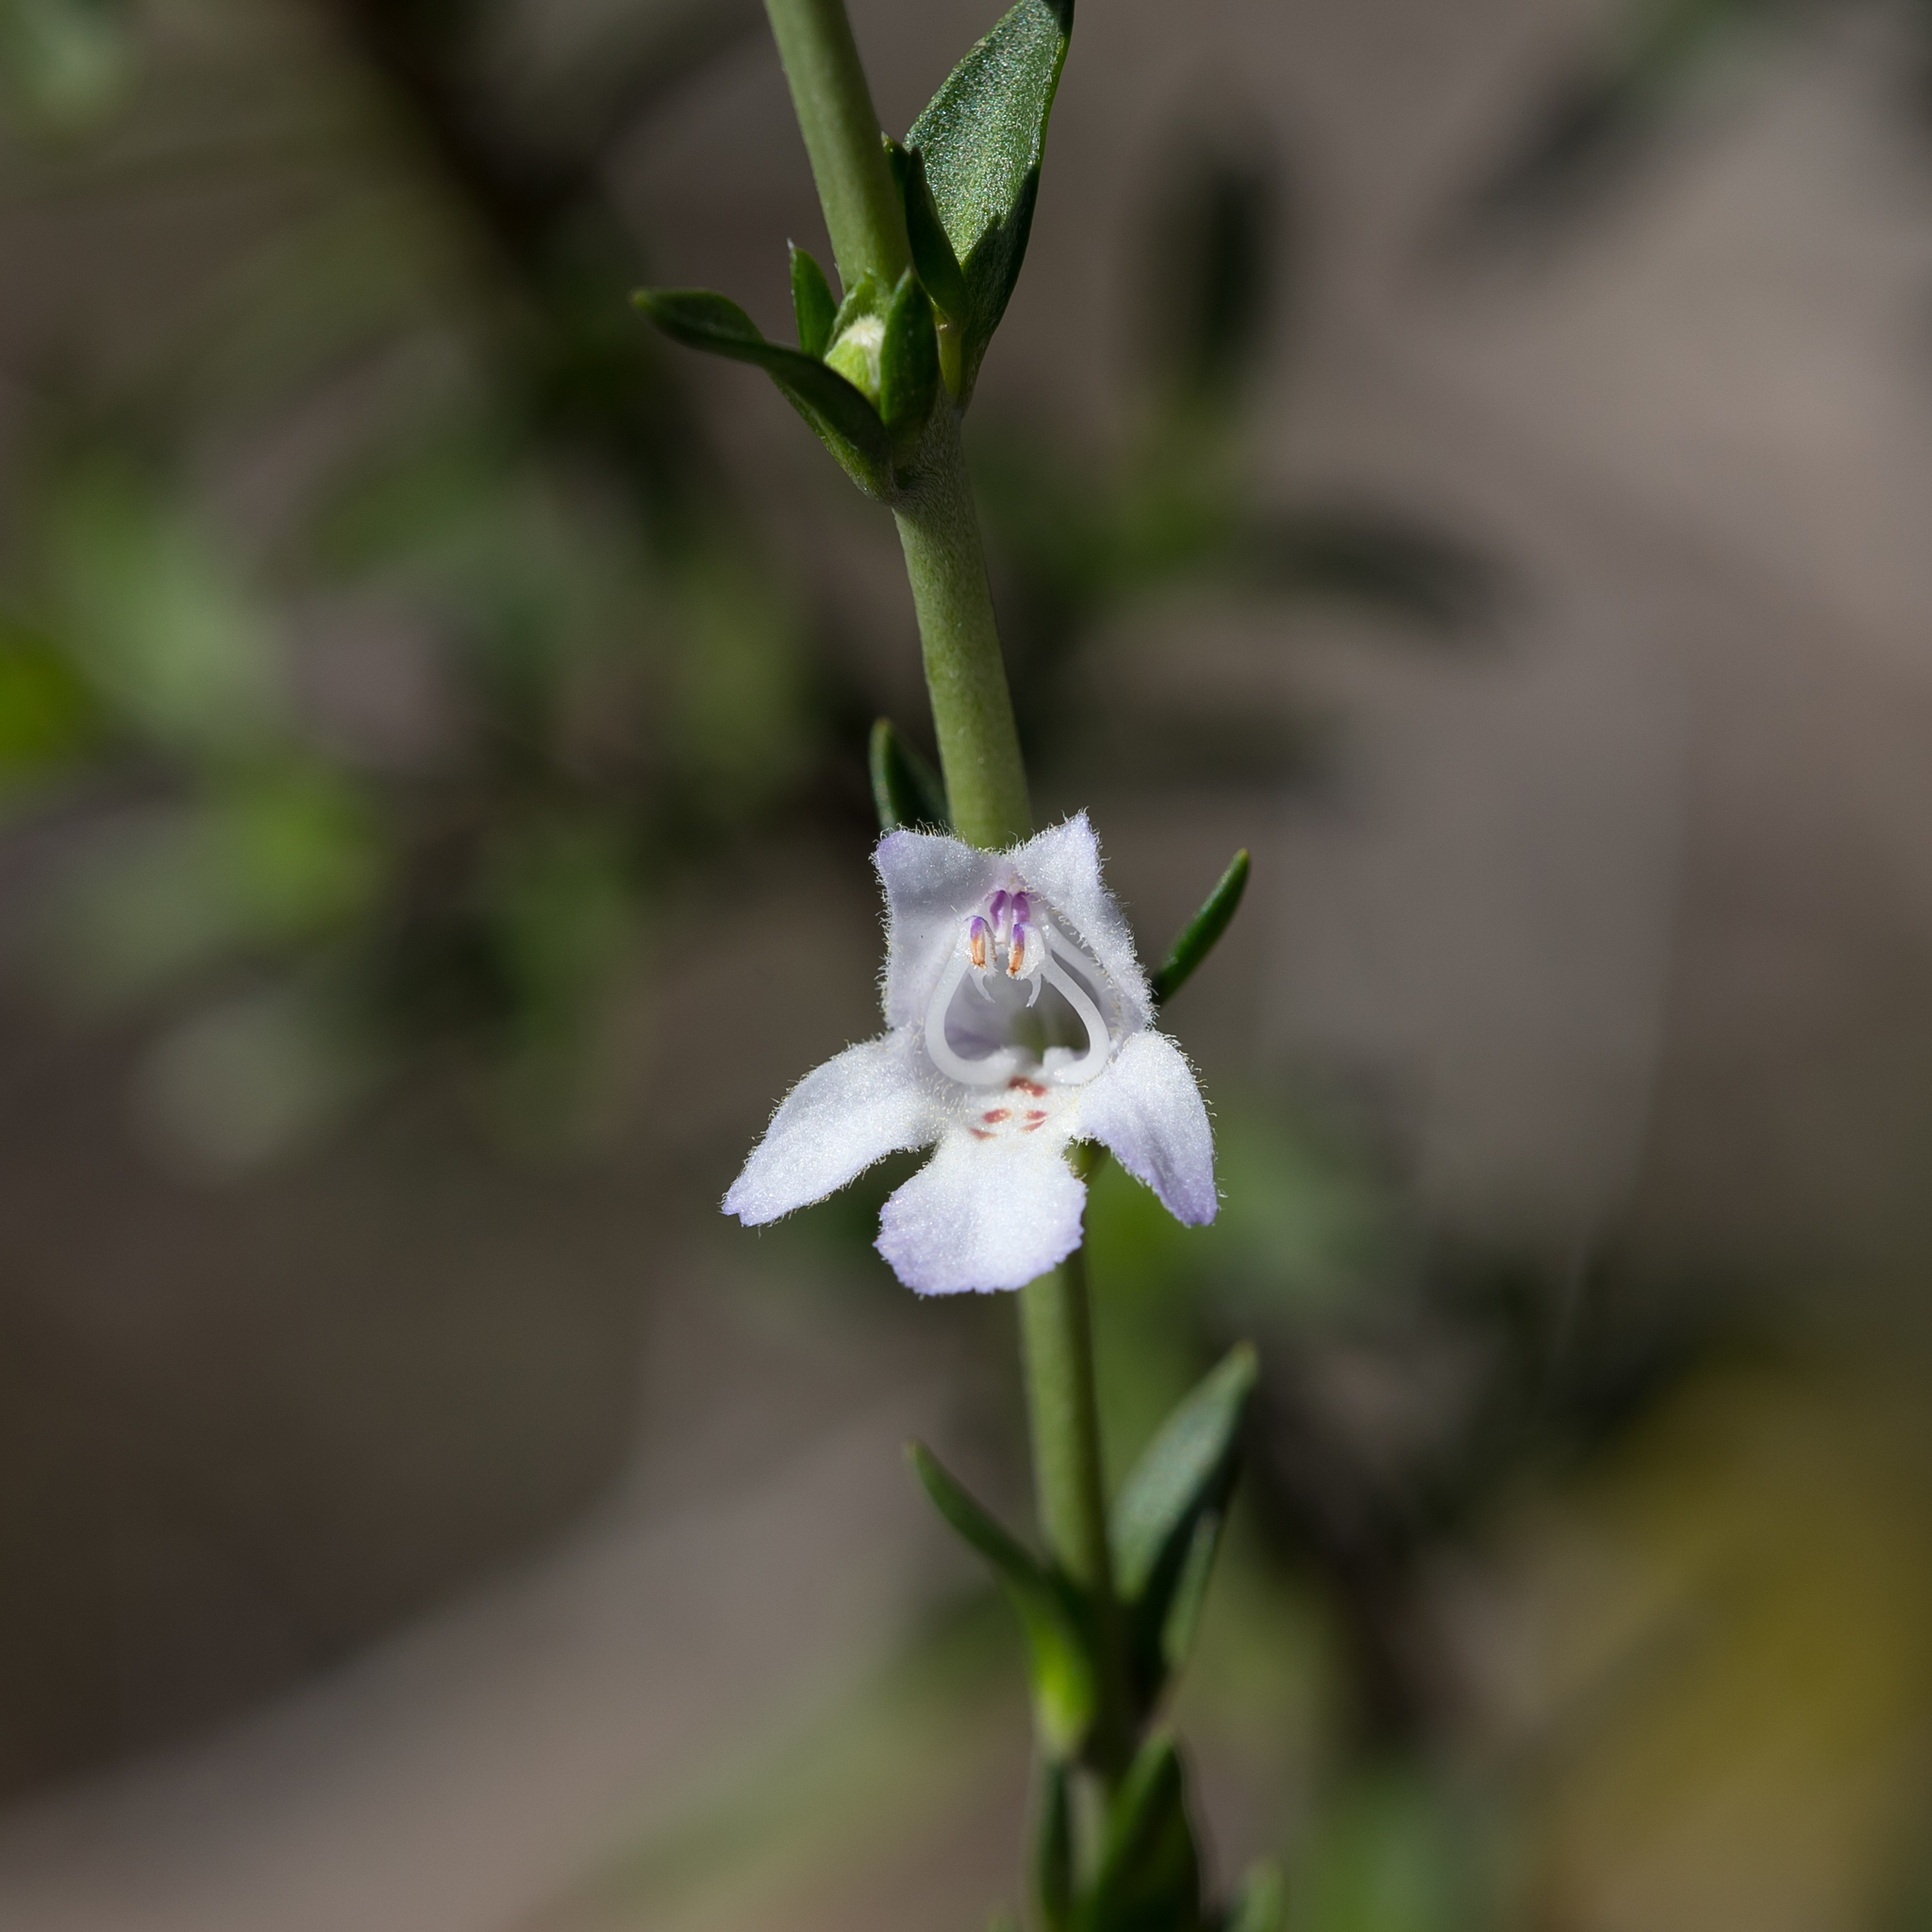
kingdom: Plantae
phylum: Tracheophyta
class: Magnoliopsida
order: Lamiales
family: Lamiaceae
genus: Prostanthera
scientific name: Prostanthera behriana
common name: Downy mintbush
